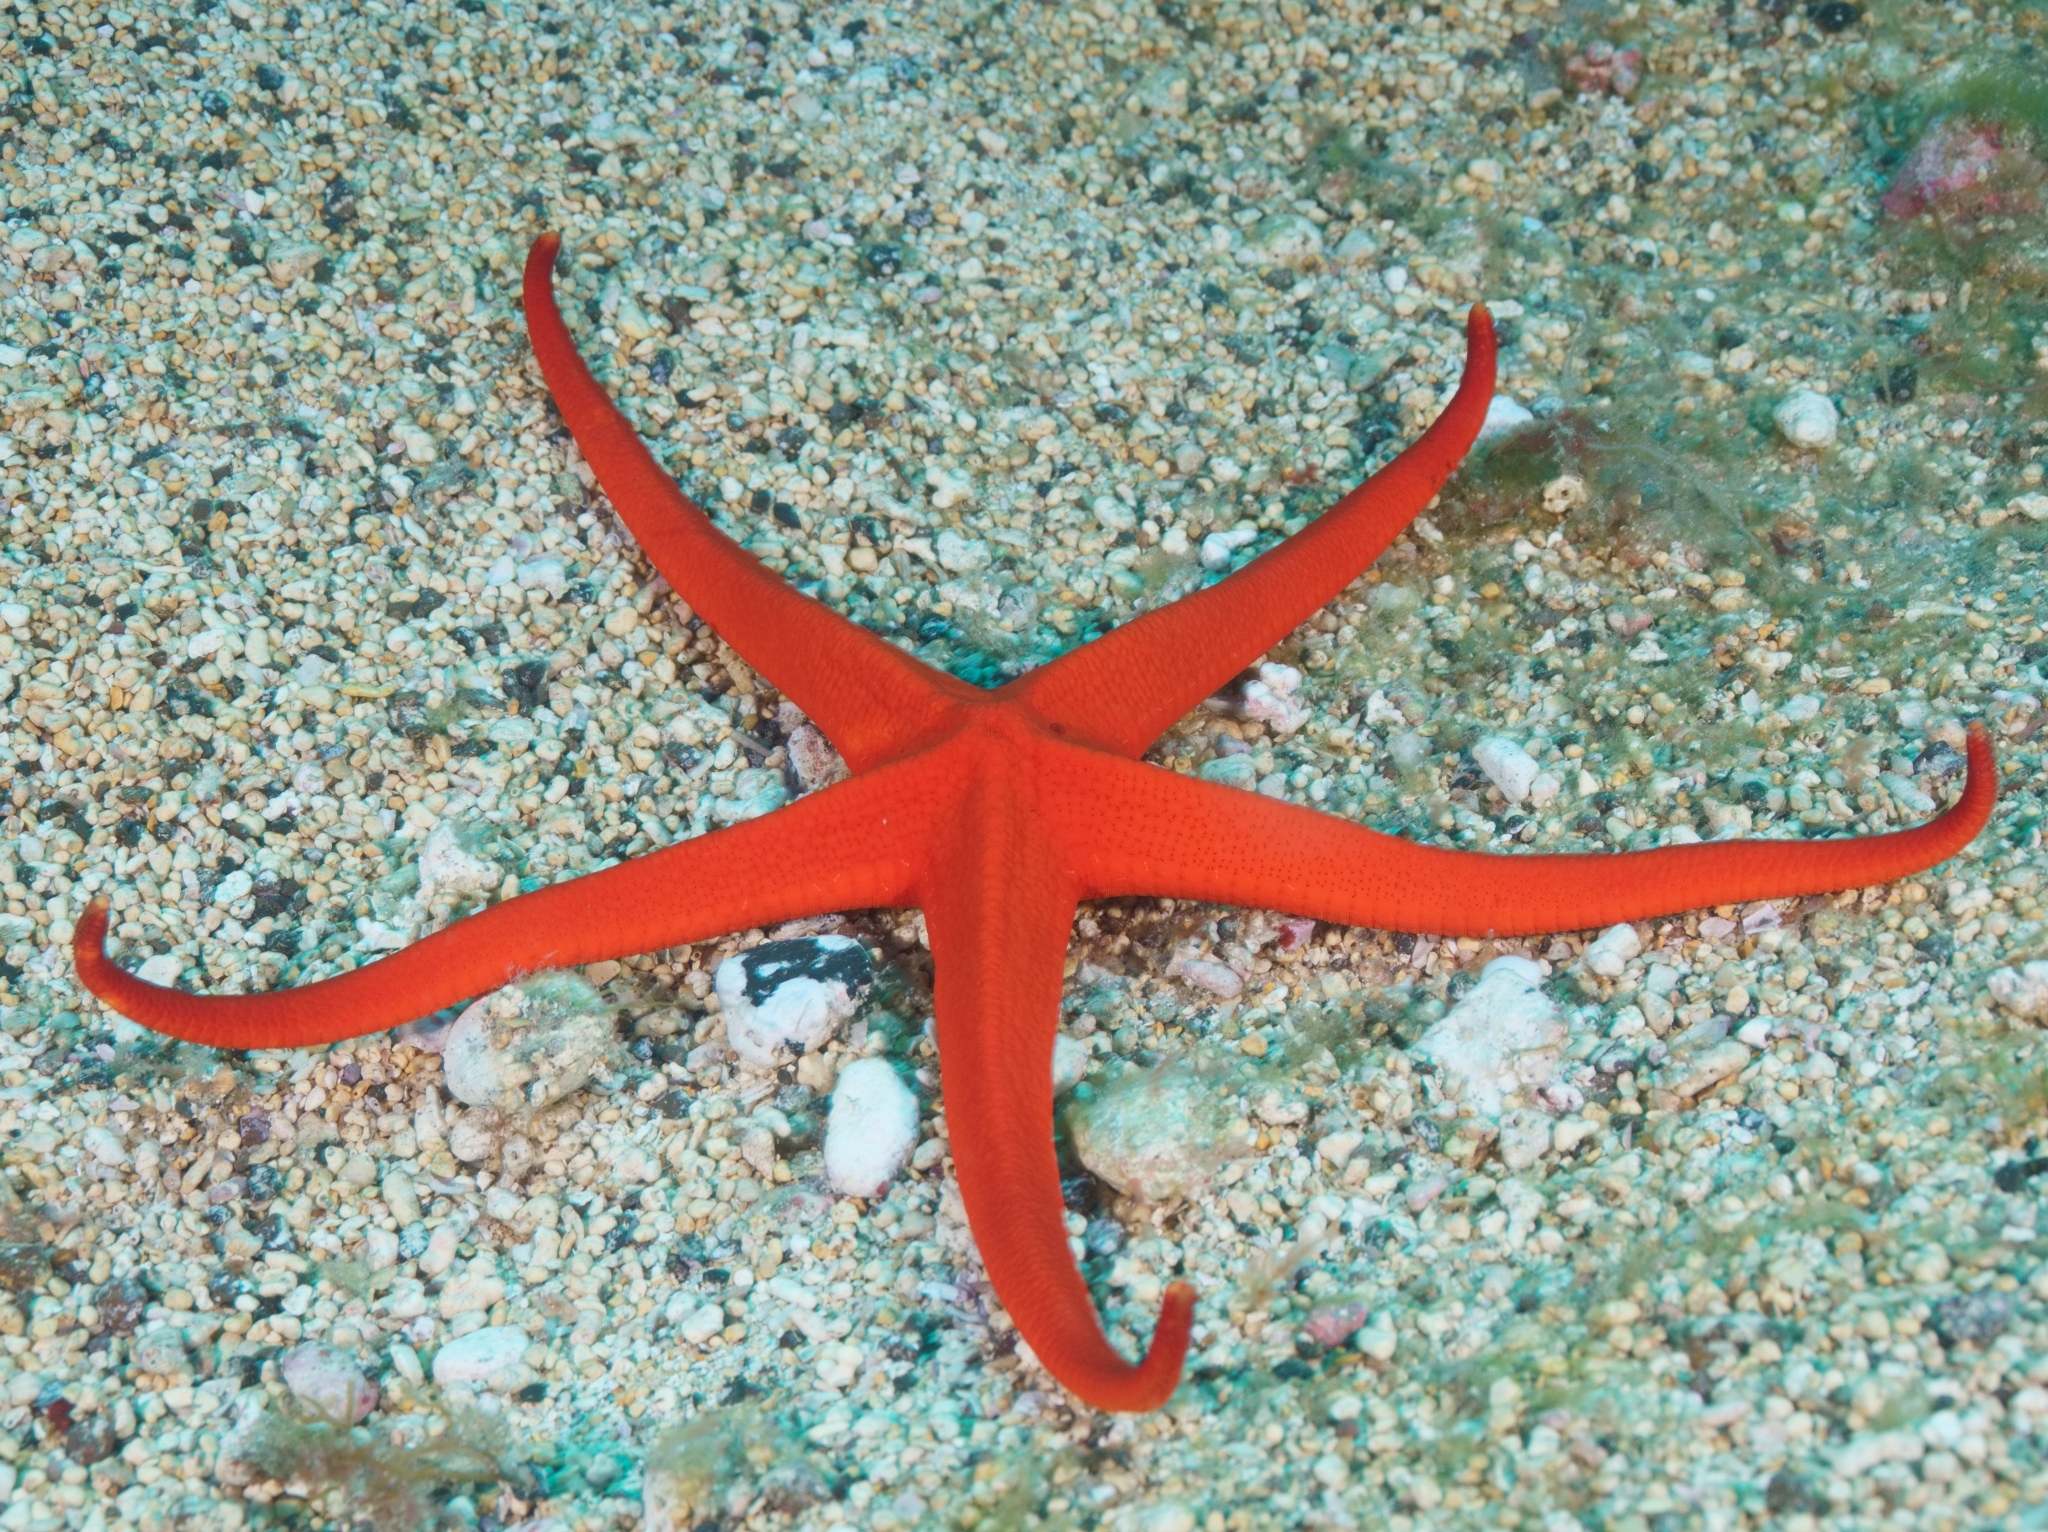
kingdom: Animalia
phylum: Echinodermata
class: Asteroidea
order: Valvatida
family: Ophidiasteridae
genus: Narcissia
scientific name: Narcissia canariensis
